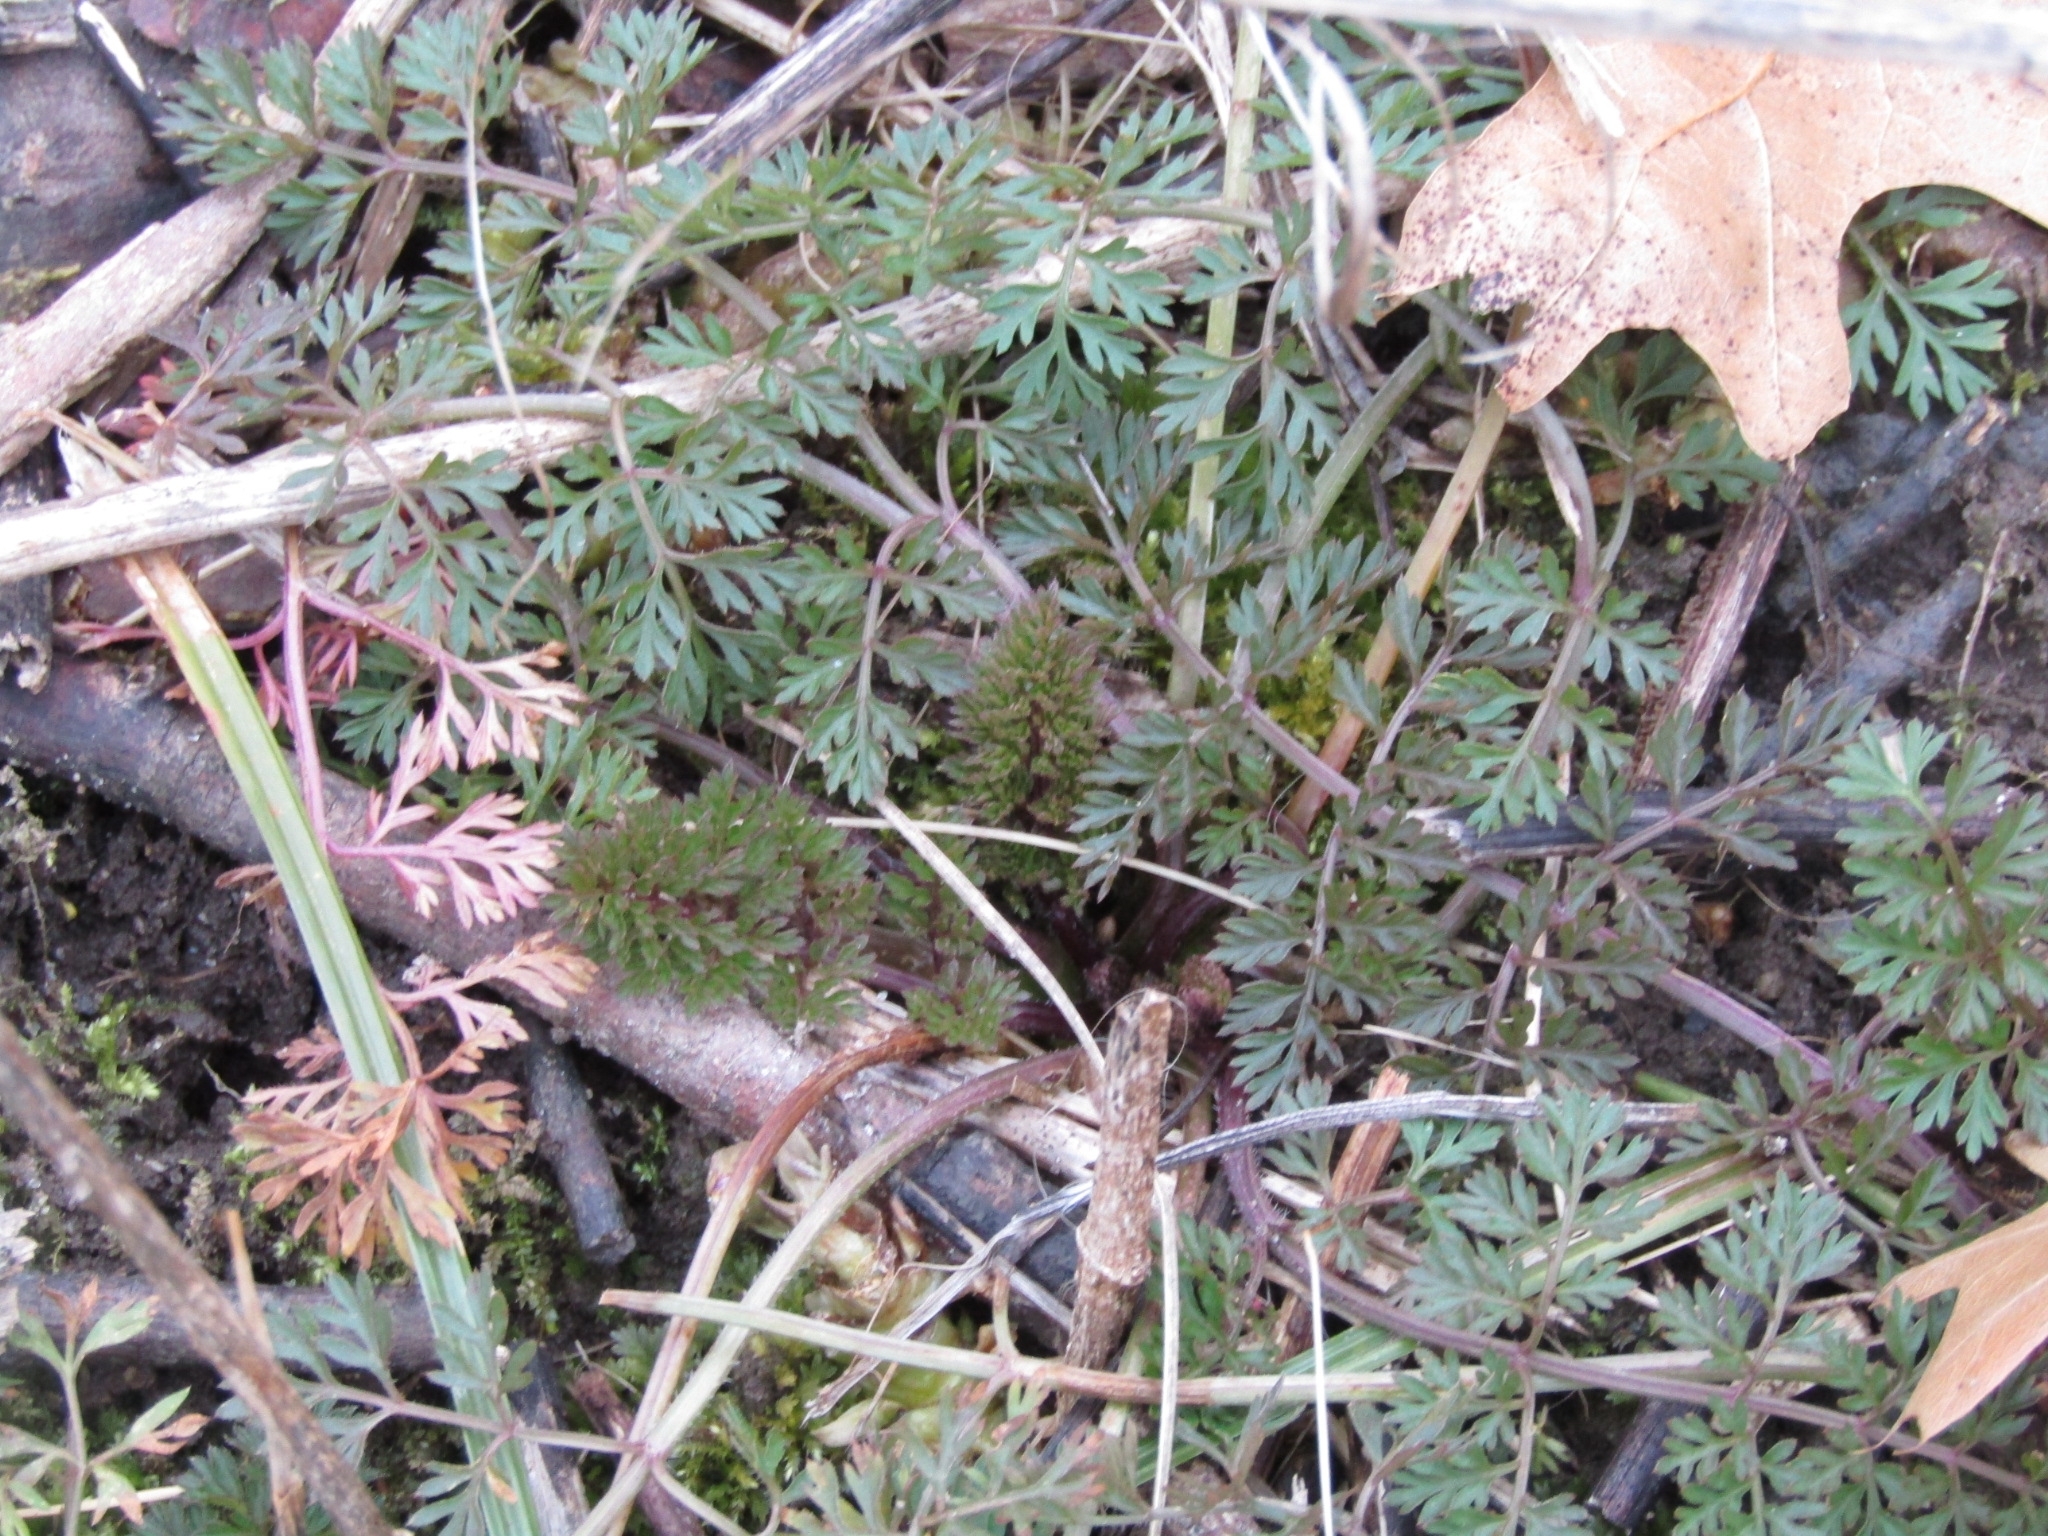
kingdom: Plantae
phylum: Tracheophyta
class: Magnoliopsida
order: Apiales
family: Apiaceae
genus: Daucus
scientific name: Daucus carota
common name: Wild carrot
